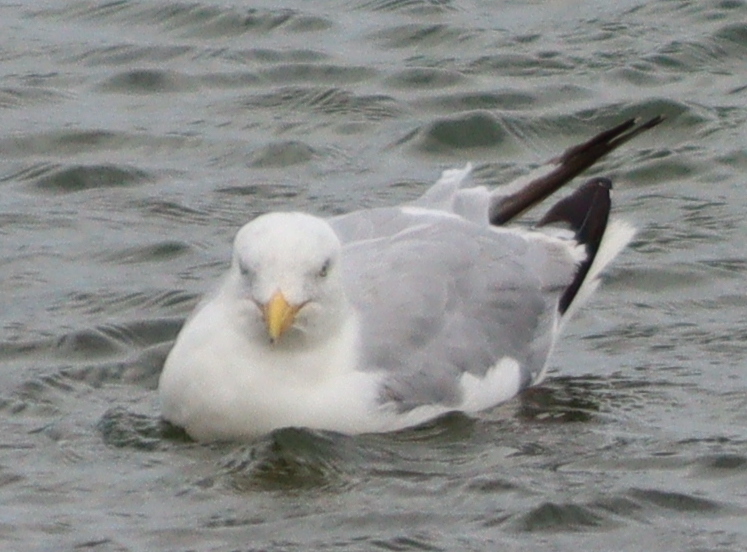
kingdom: Animalia
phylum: Chordata
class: Aves
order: Charadriiformes
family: Laridae
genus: Larus
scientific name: Larus argentatus
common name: Herring gull
